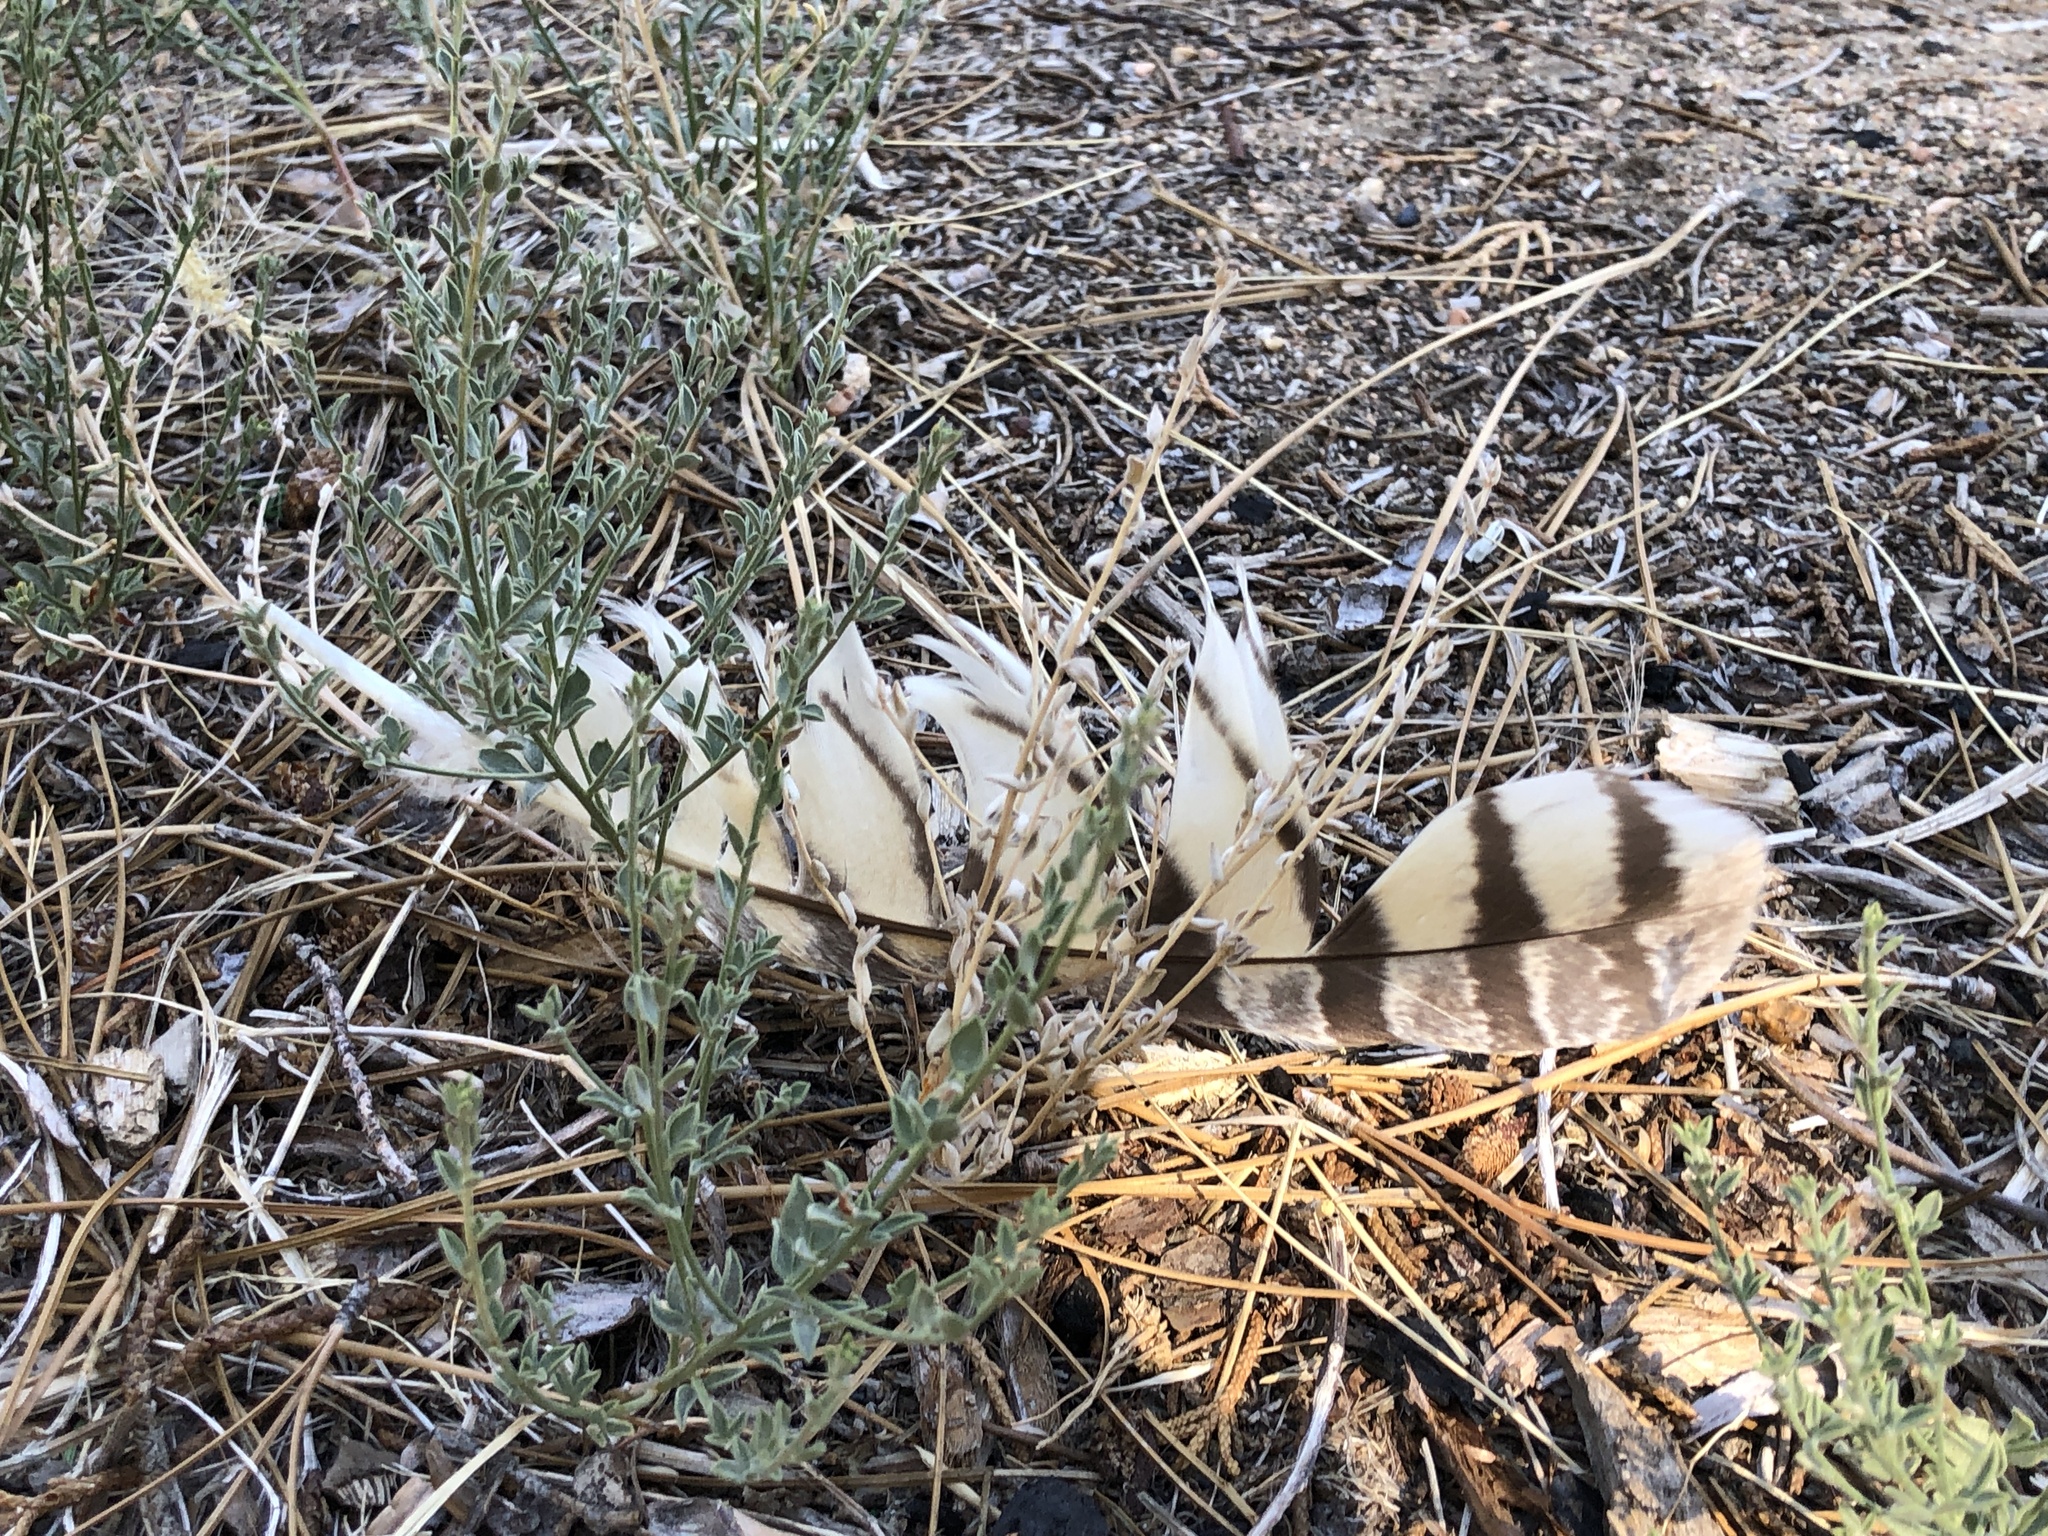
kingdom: Animalia
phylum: Chordata
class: Aves
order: Strigiformes
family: Strigidae
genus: Bubo
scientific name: Bubo virginianus
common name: Great horned owl
